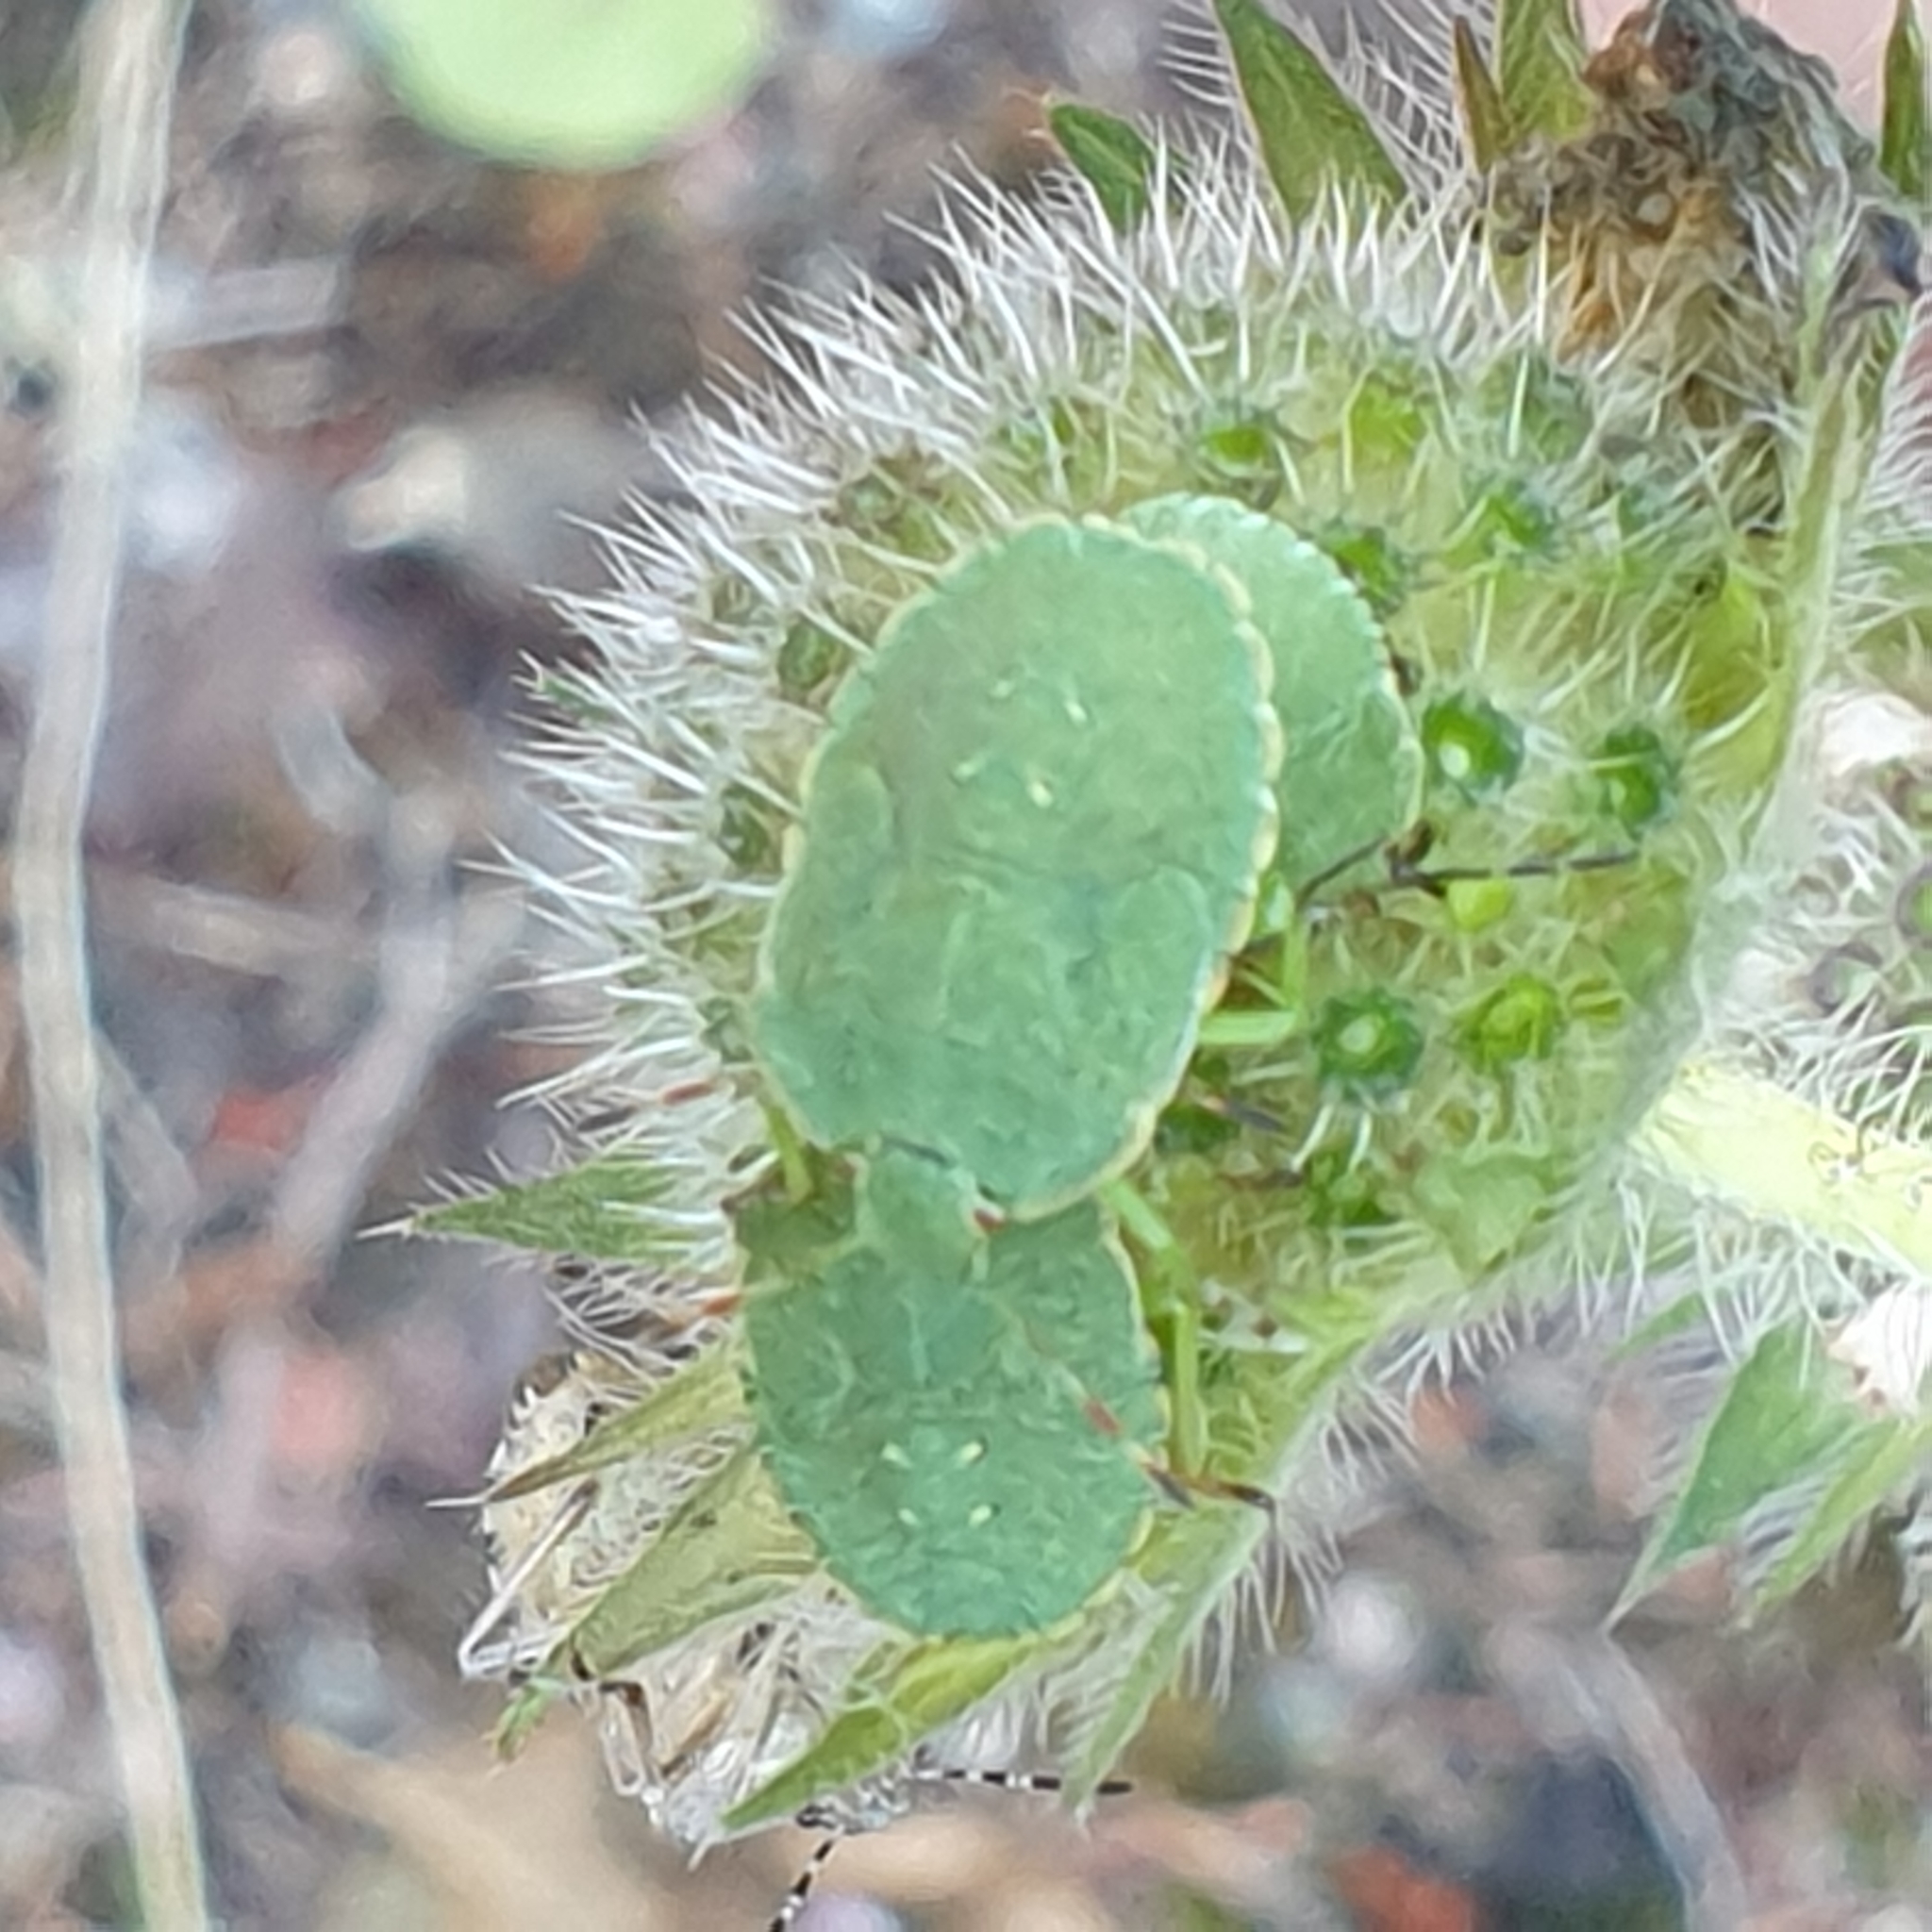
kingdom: Animalia
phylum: Arthropoda
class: Insecta
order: Hemiptera
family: Pentatomidae
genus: Palomena
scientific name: Palomena prasina
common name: Green shieldbug
